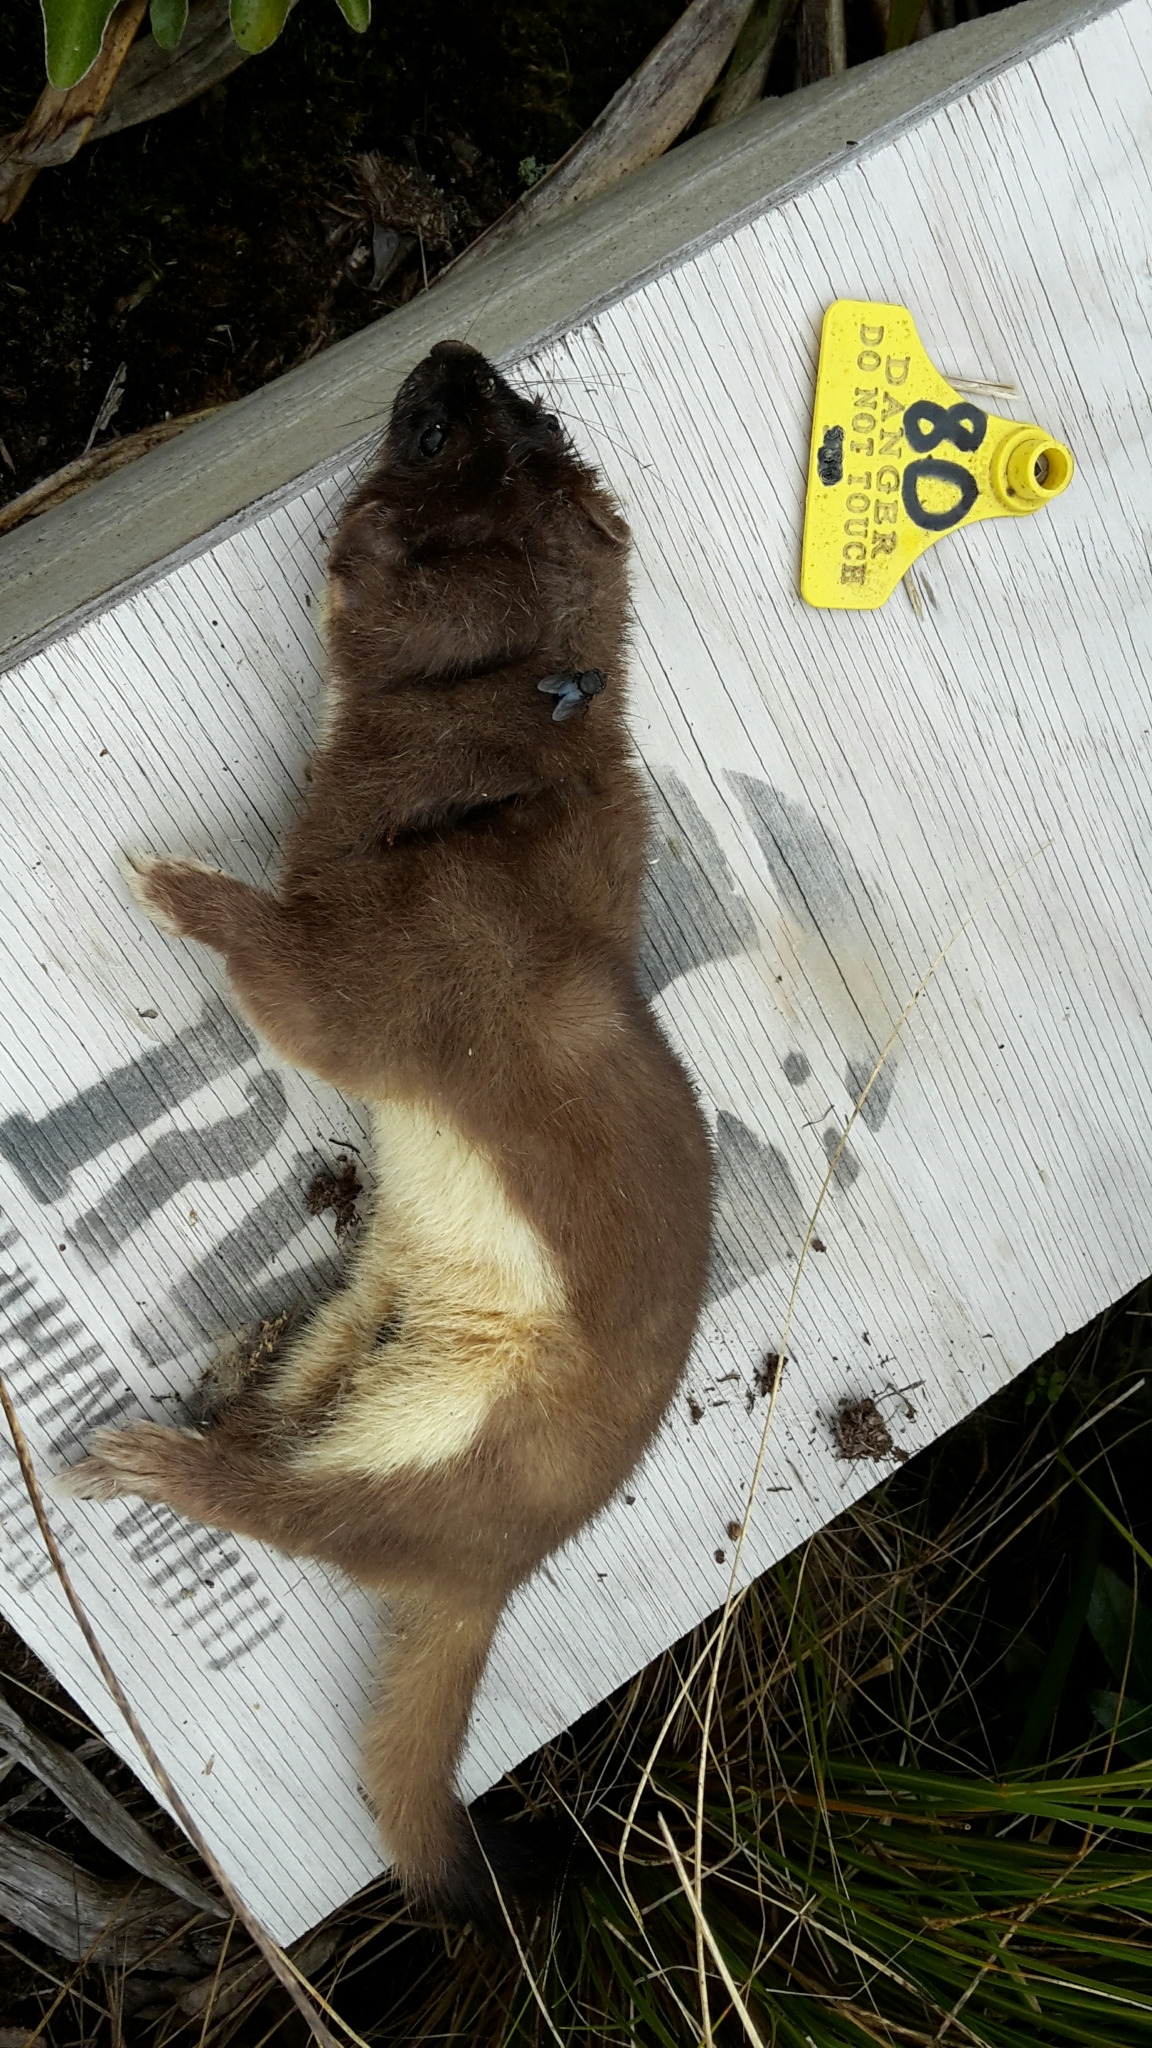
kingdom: Animalia
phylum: Chordata
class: Mammalia
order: Carnivora
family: Mustelidae
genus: Mustela
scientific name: Mustela erminea
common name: Stoat
